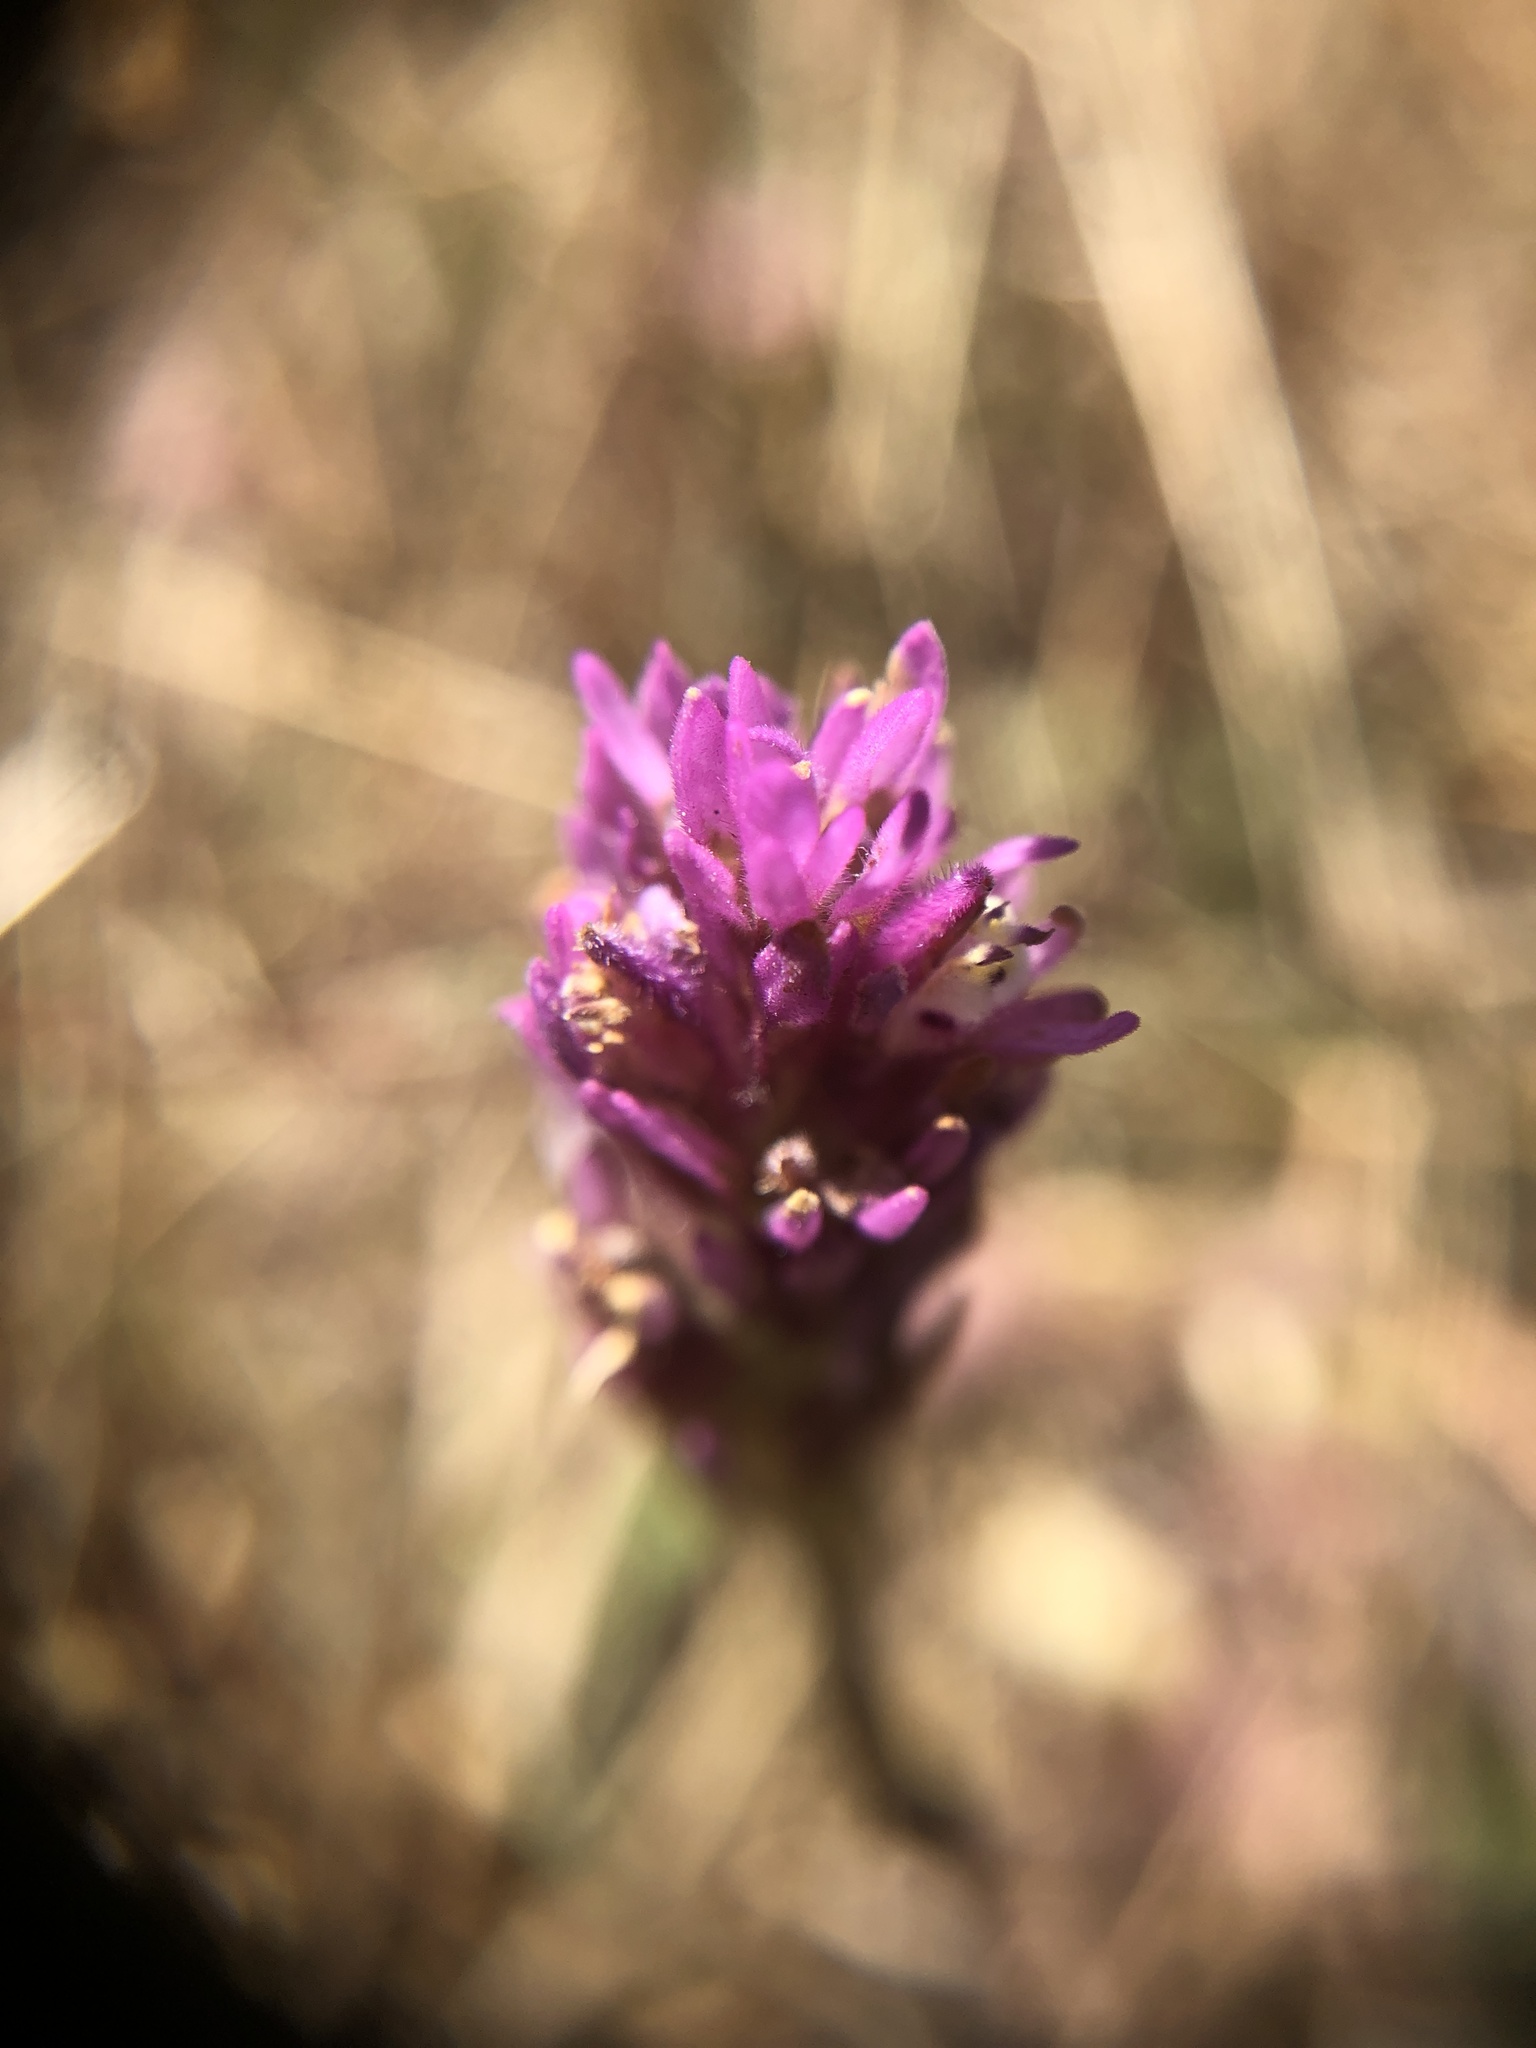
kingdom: Plantae
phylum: Tracheophyta
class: Magnoliopsida
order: Lamiales
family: Orobanchaceae
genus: Castilleja
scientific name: Castilleja exserta
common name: Purple owl-clover
